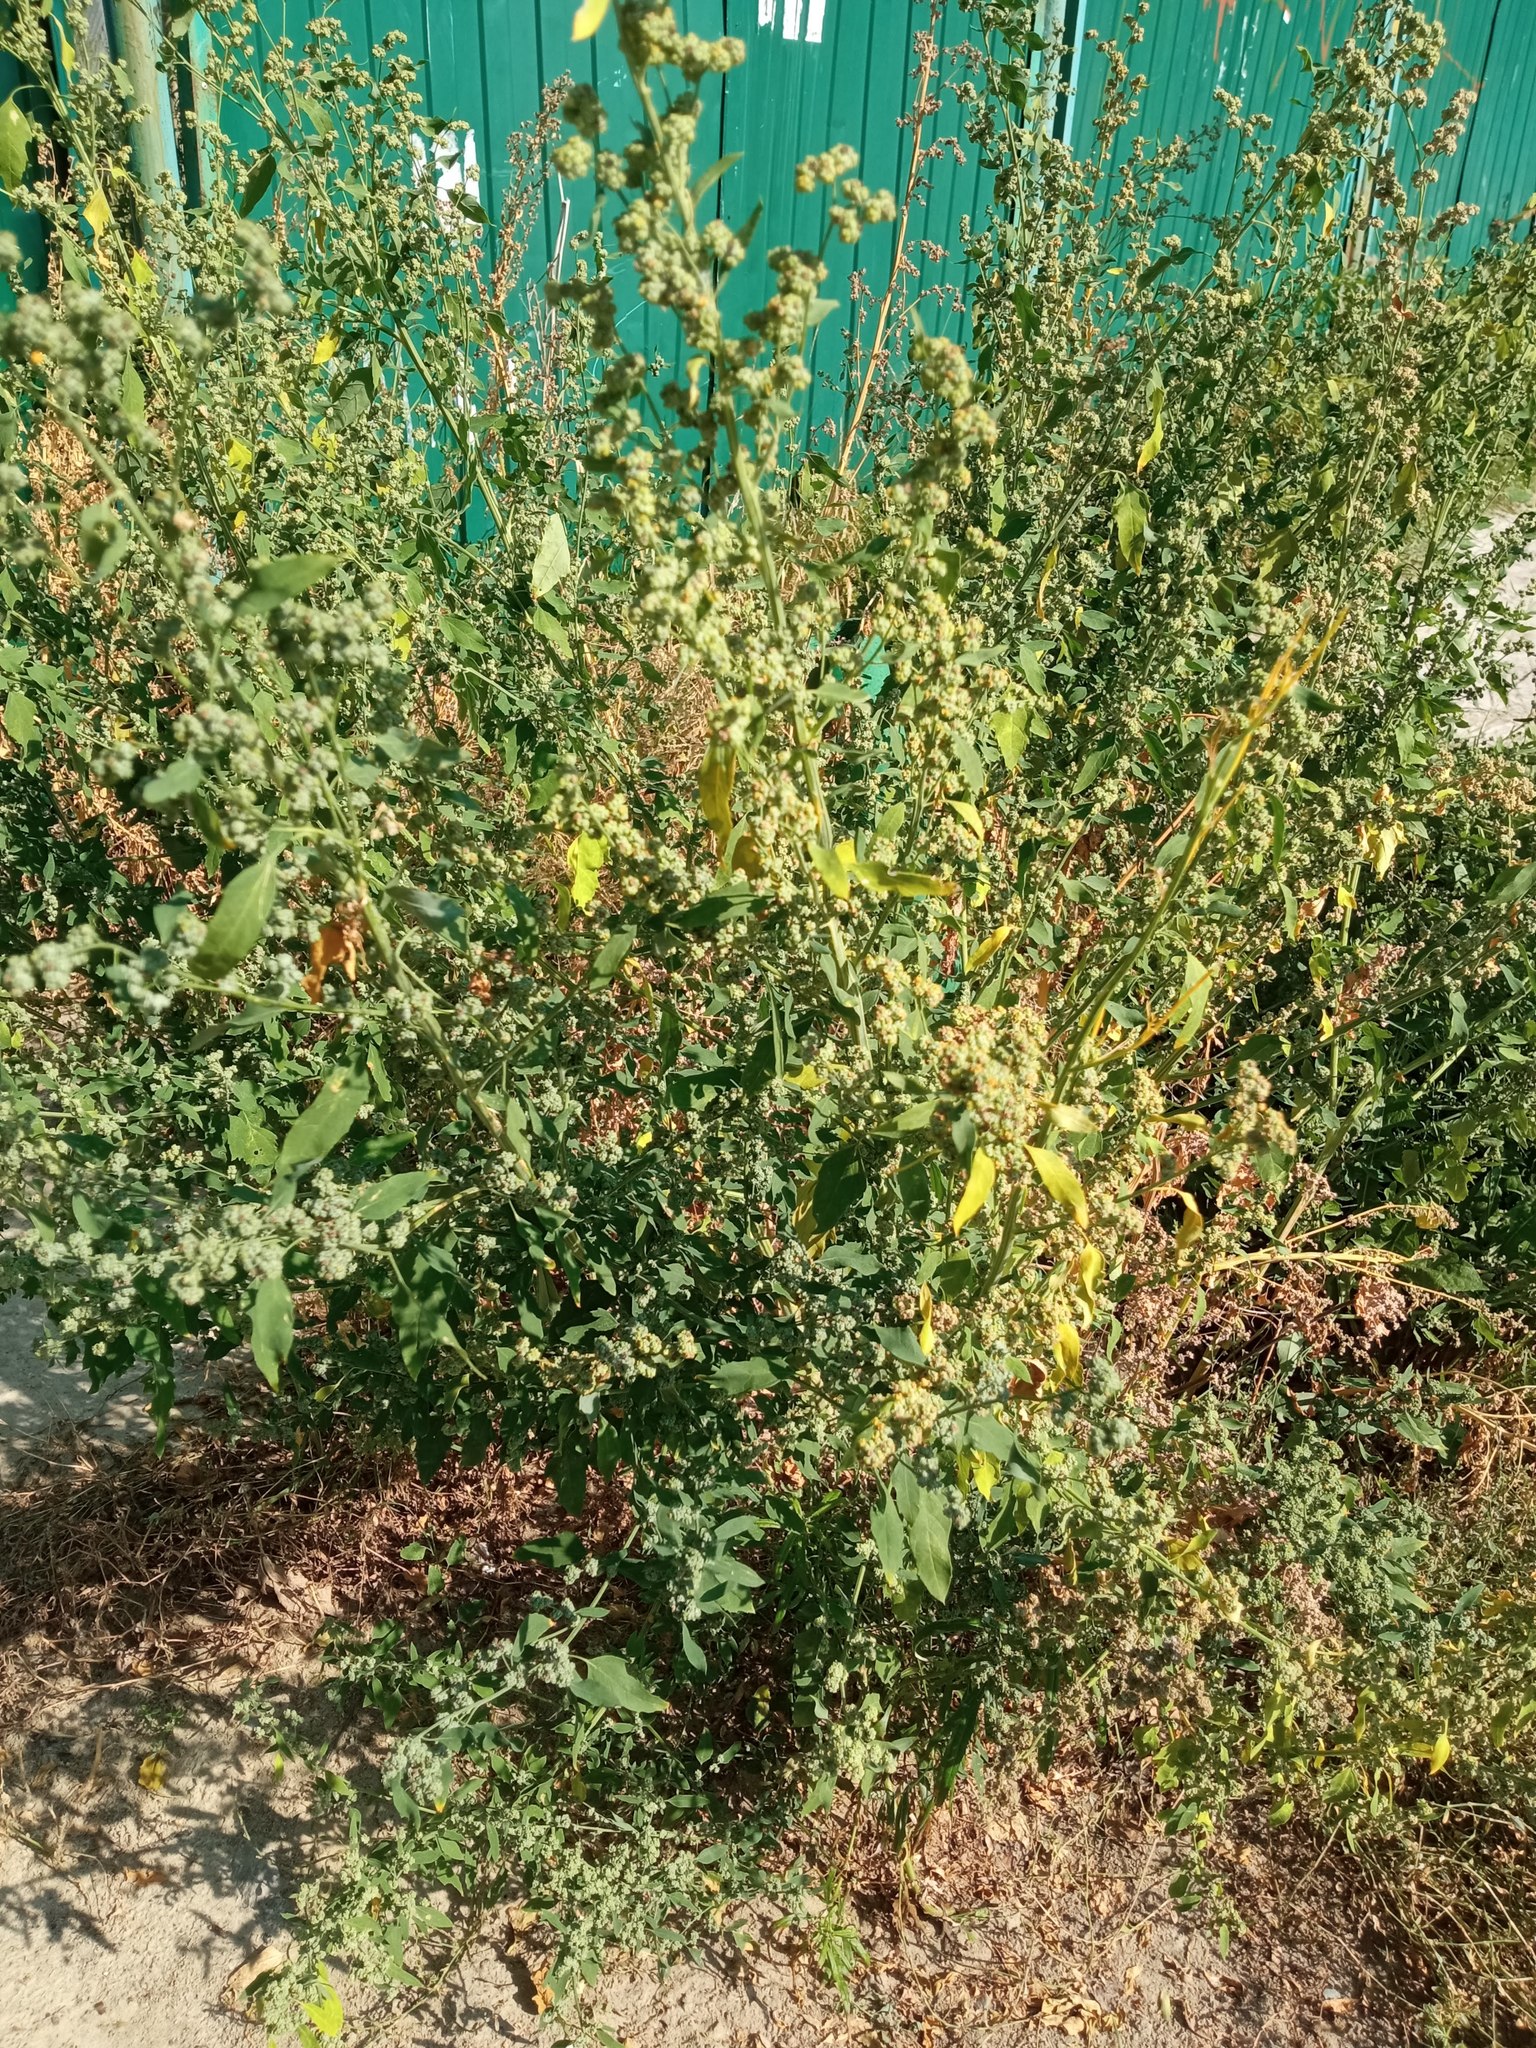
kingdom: Plantae
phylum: Tracheophyta
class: Magnoliopsida
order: Caryophyllales
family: Amaranthaceae
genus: Chenopodium
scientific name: Chenopodium album
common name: Fat-hen
